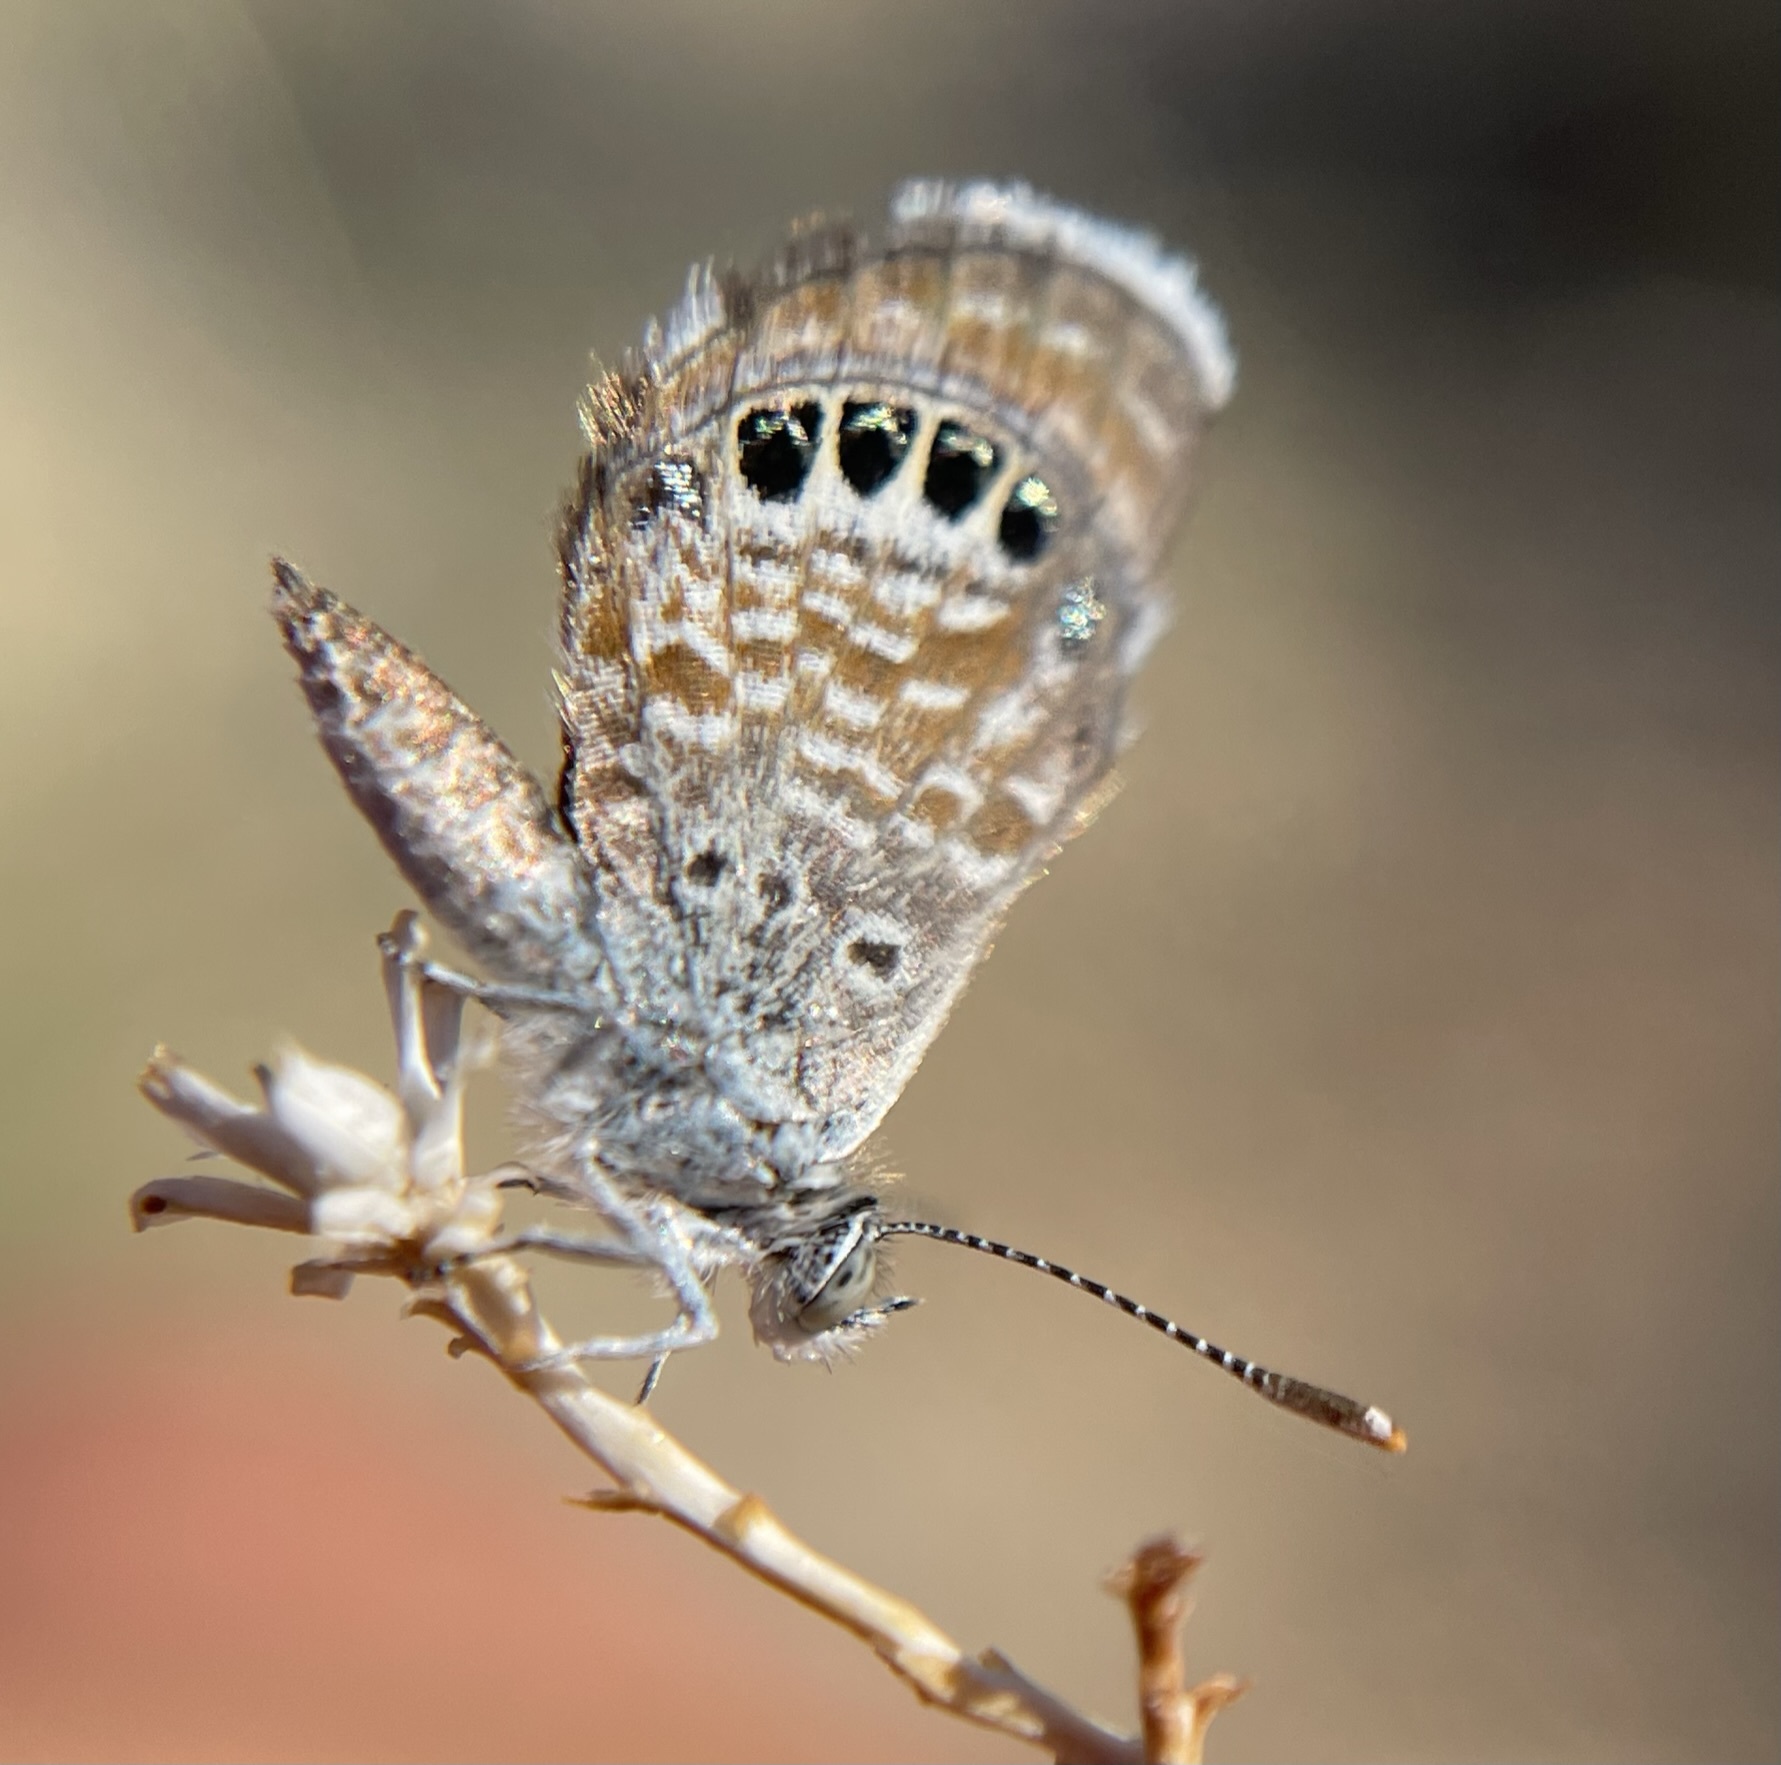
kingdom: Animalia
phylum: Arthropoda
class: Insecta
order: Lepidoptera
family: Lycaenidae
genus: Brephidium
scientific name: Brephidium exilis
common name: Pygmy blue
